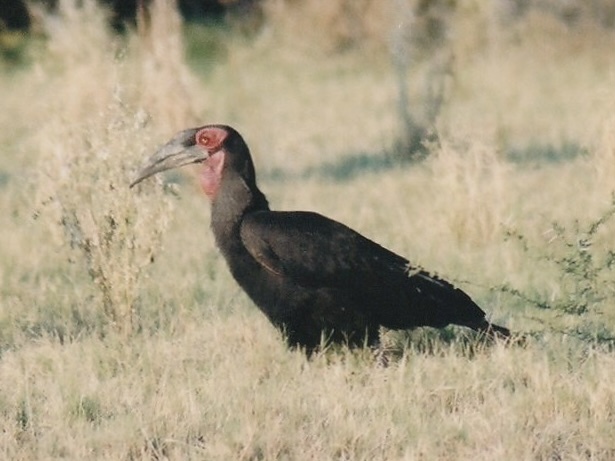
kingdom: Animalia
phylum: Chordata
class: Aves
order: Bucerotiformes
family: Bucorvidae
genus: Bucorvus
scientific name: Bucorvus leadbeateri
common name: Southern ground-hornbill
